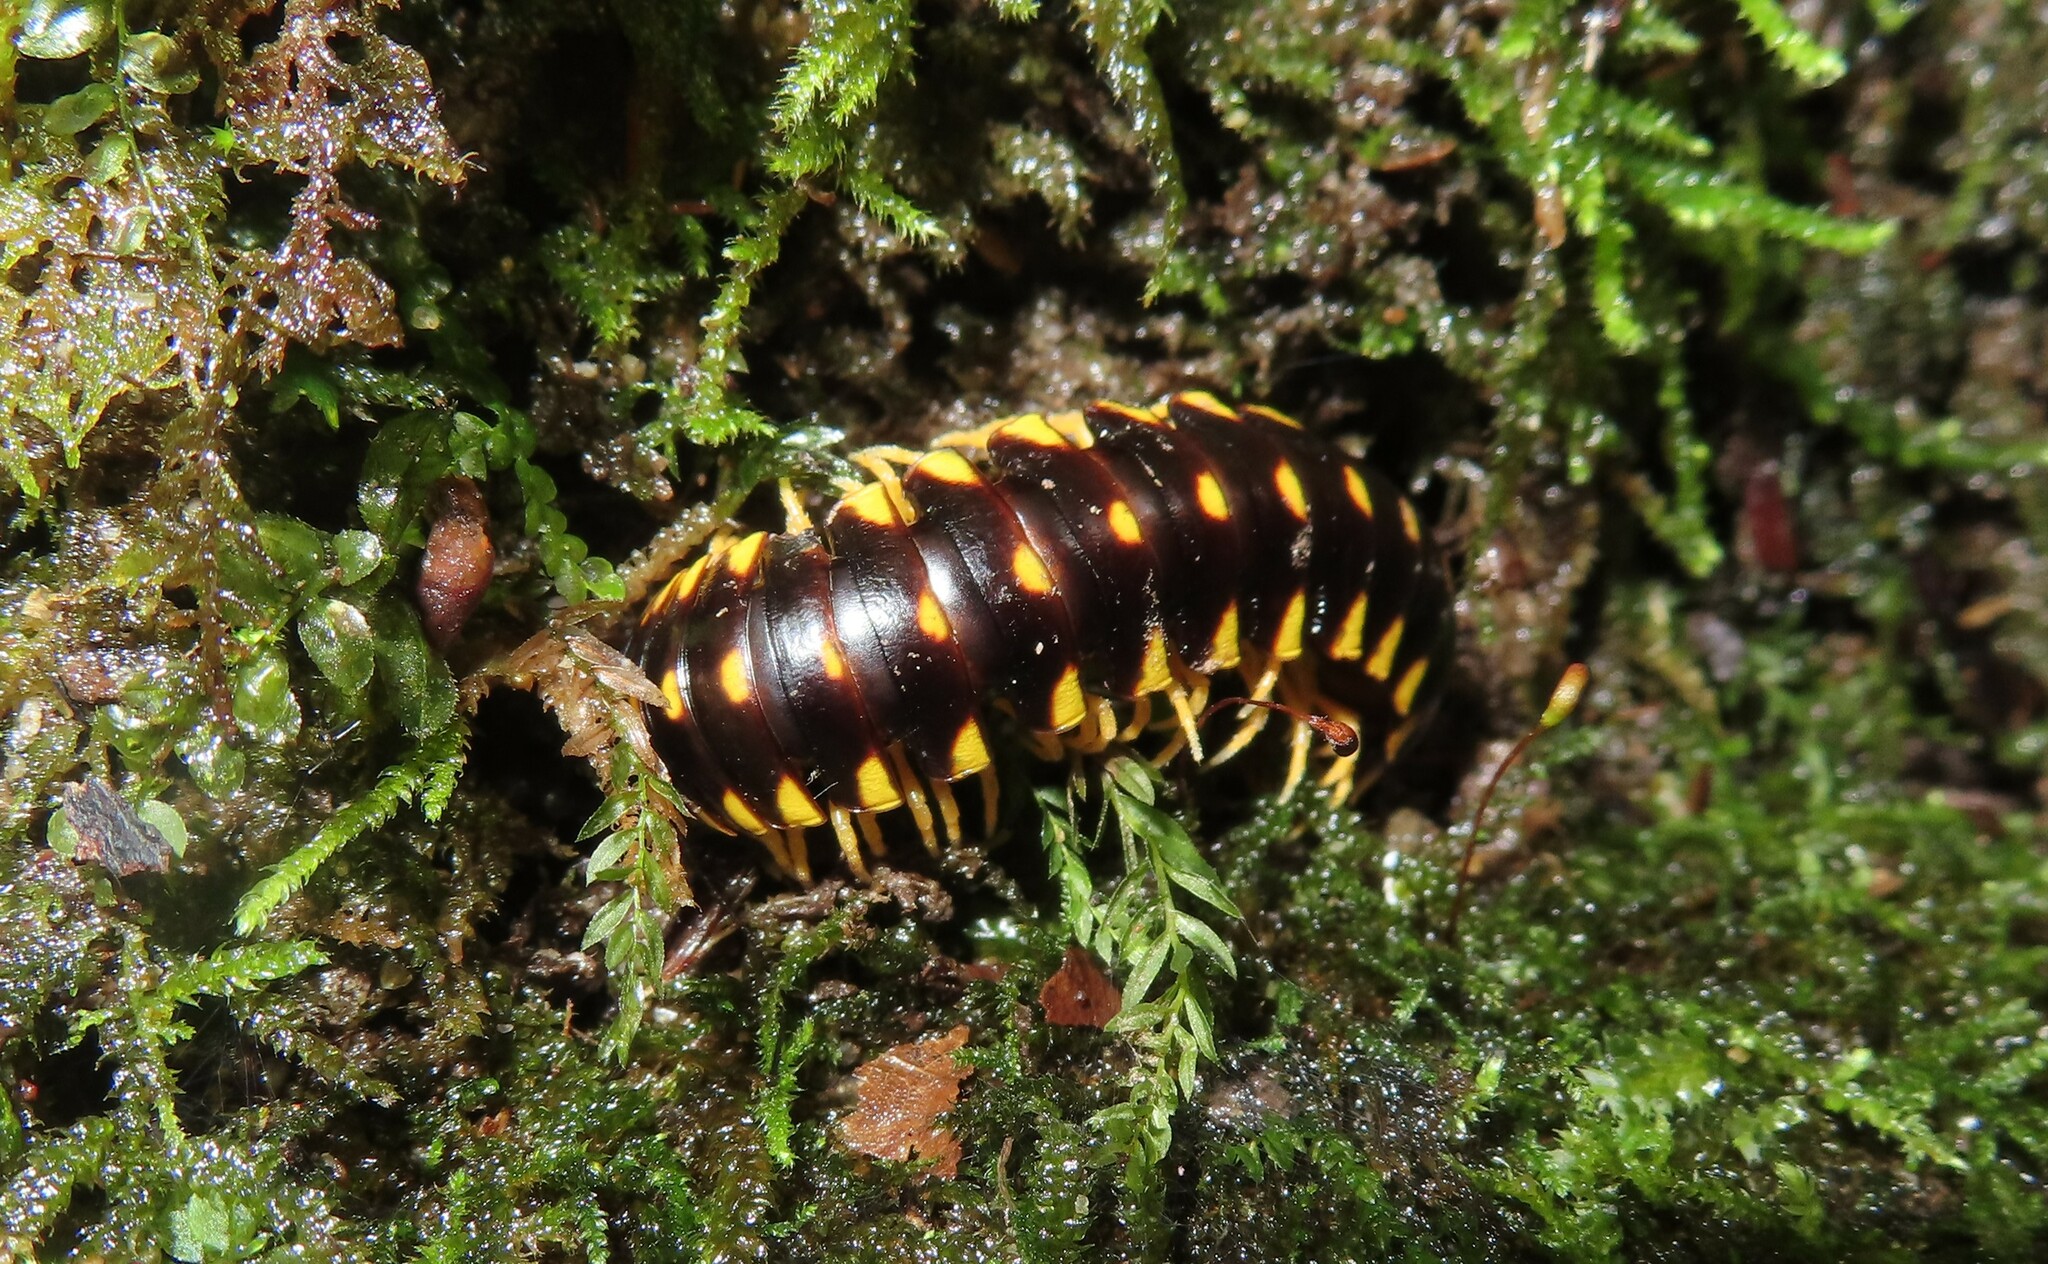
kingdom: Animalia
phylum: Arthropoda
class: Diplopoda
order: Polydesmida
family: Xystodesmidae
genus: Cherokia
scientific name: Cherokia georgiana
